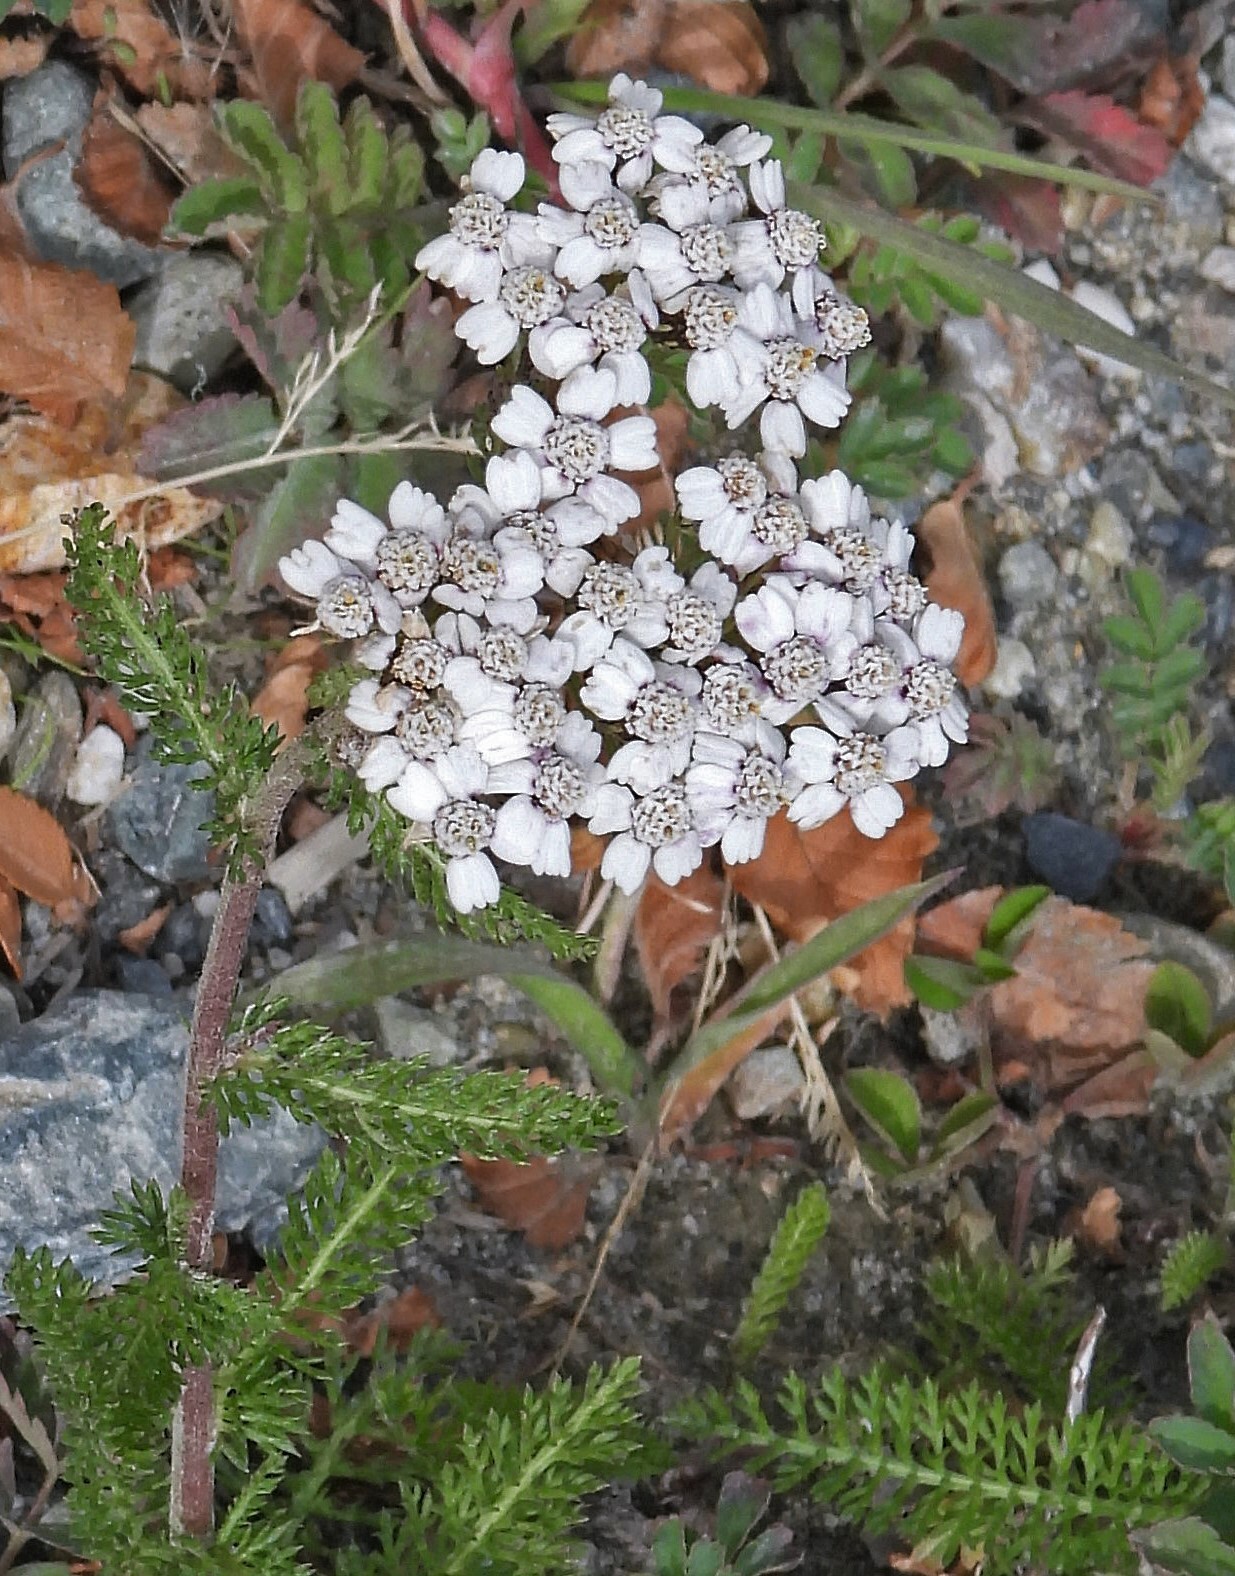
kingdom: Plantae
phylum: Tracheophyta
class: Magnoliopsida
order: Asterales
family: Asteraceae
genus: Achillea
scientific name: Achillea millefolium
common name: Yarrow
